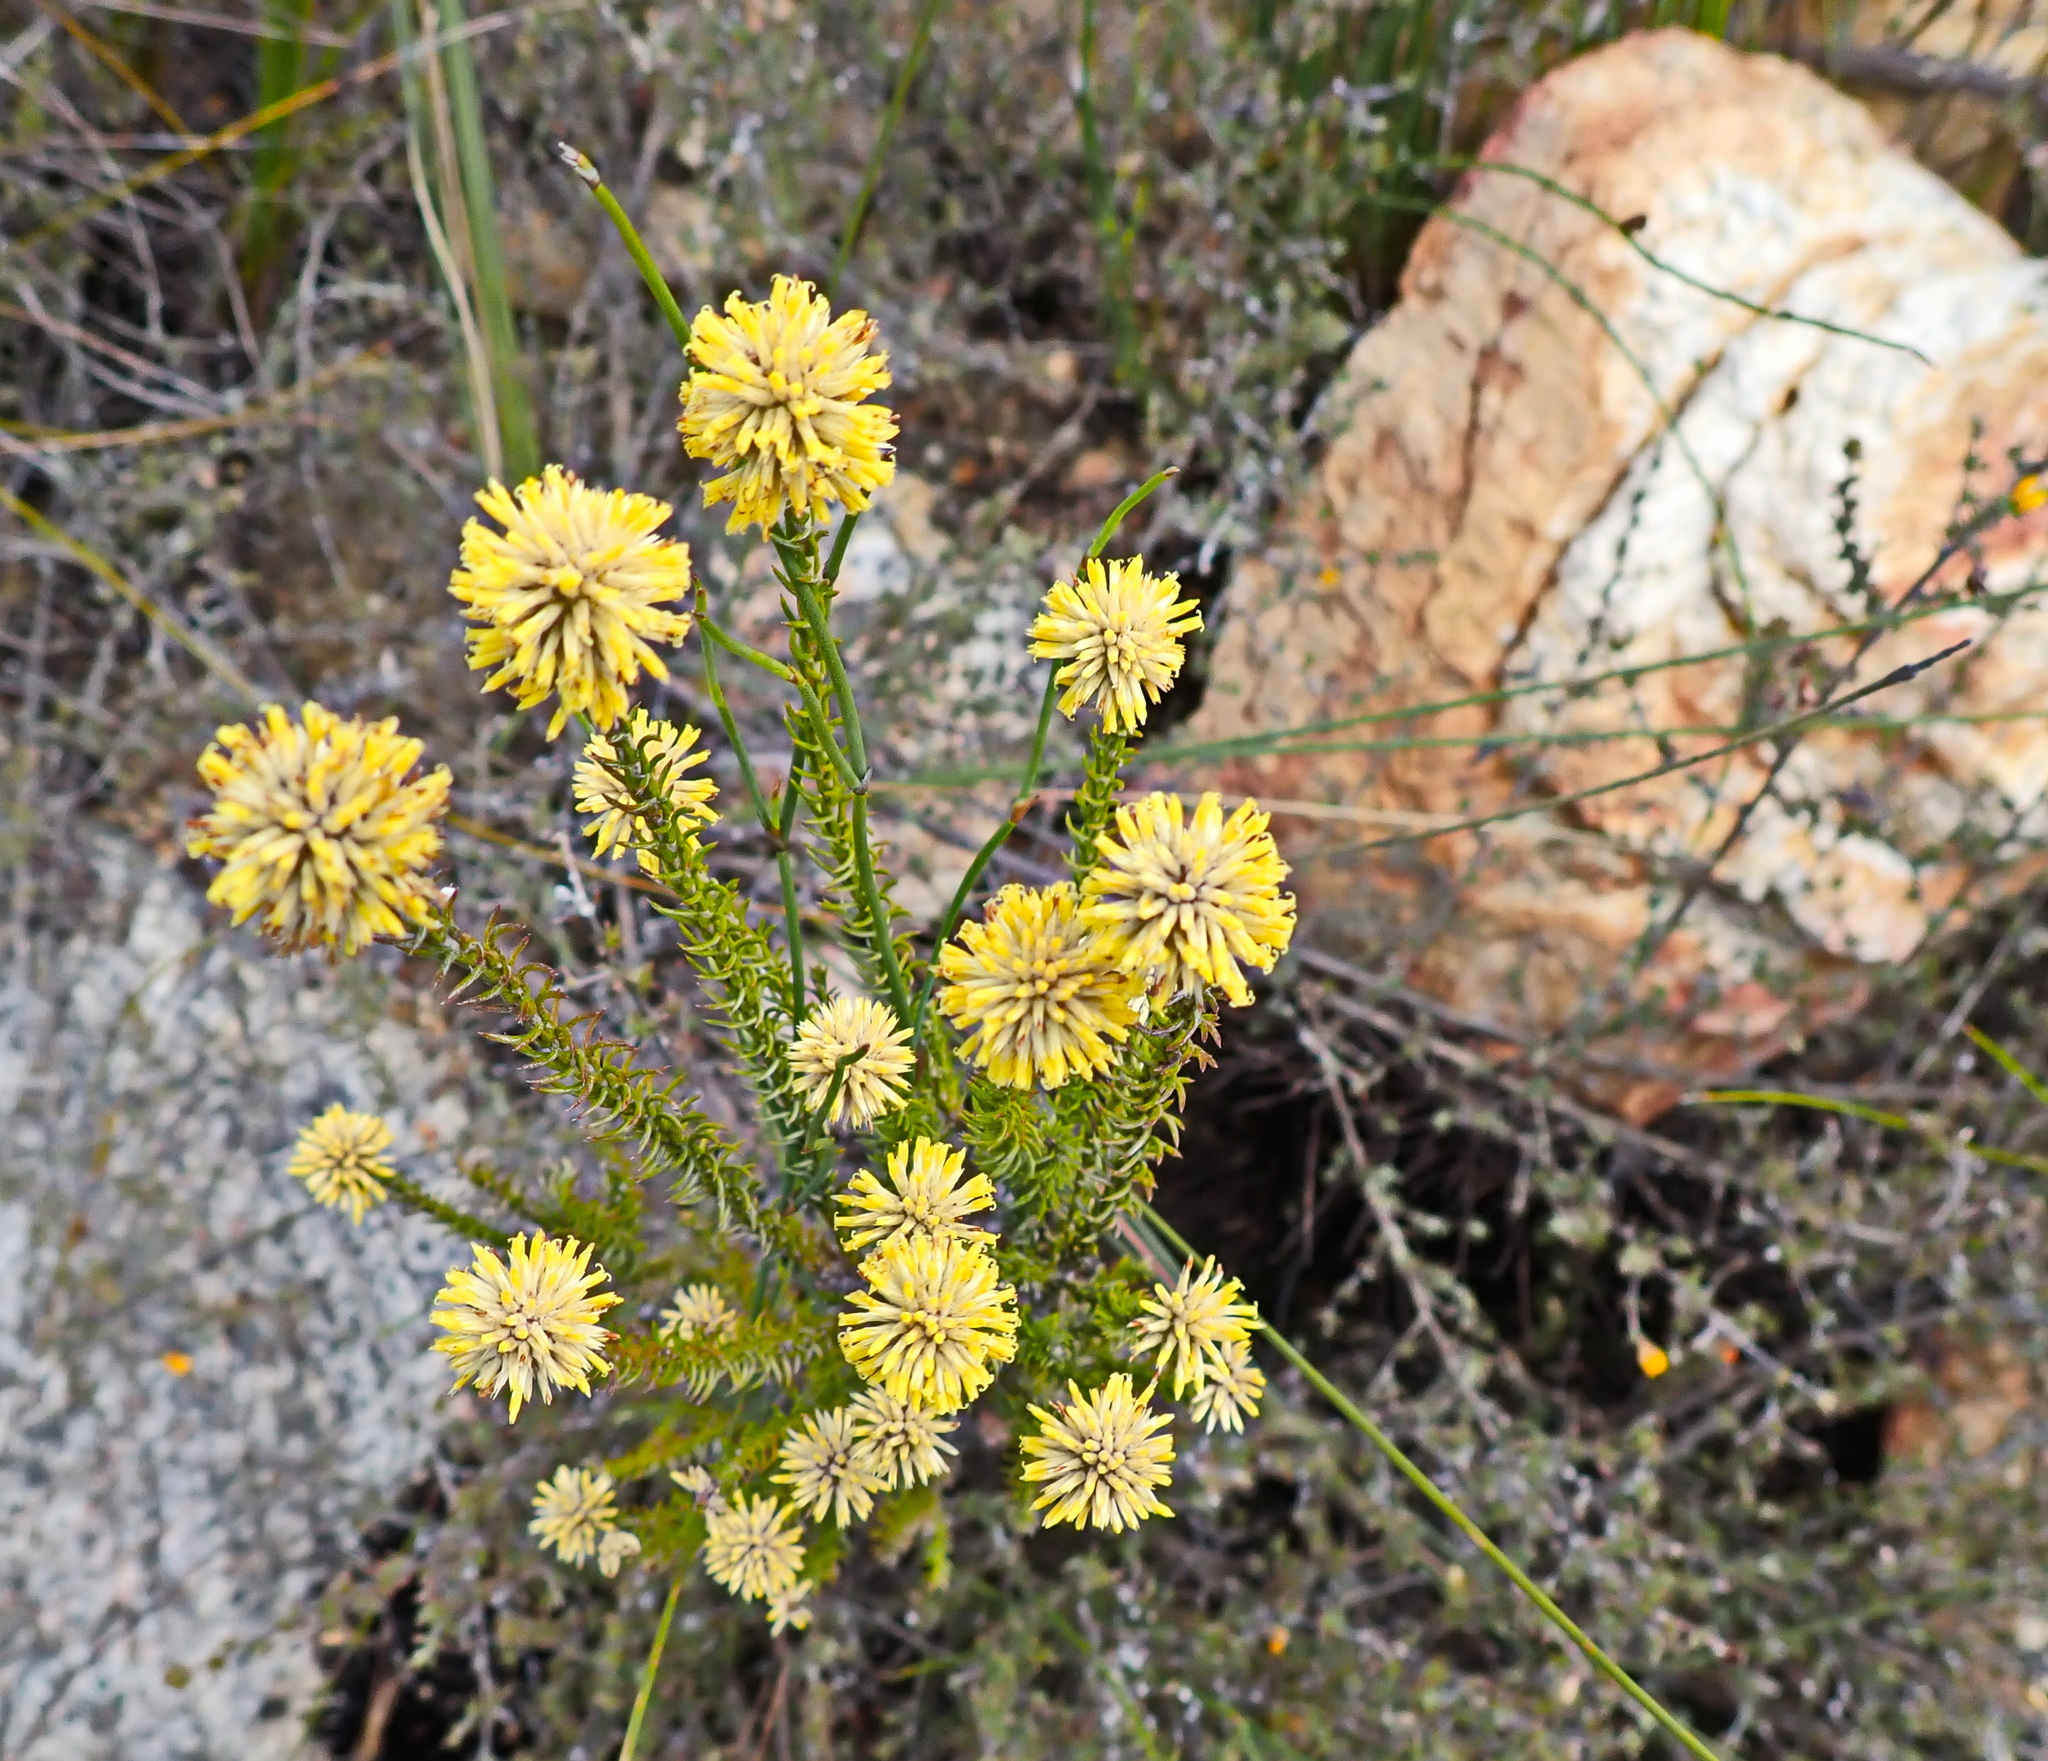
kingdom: Plantae
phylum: Tracheophyta
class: Magnoliopsida
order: Asterales
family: Asteraceae
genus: Seriphium
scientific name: Seriphium spirale
